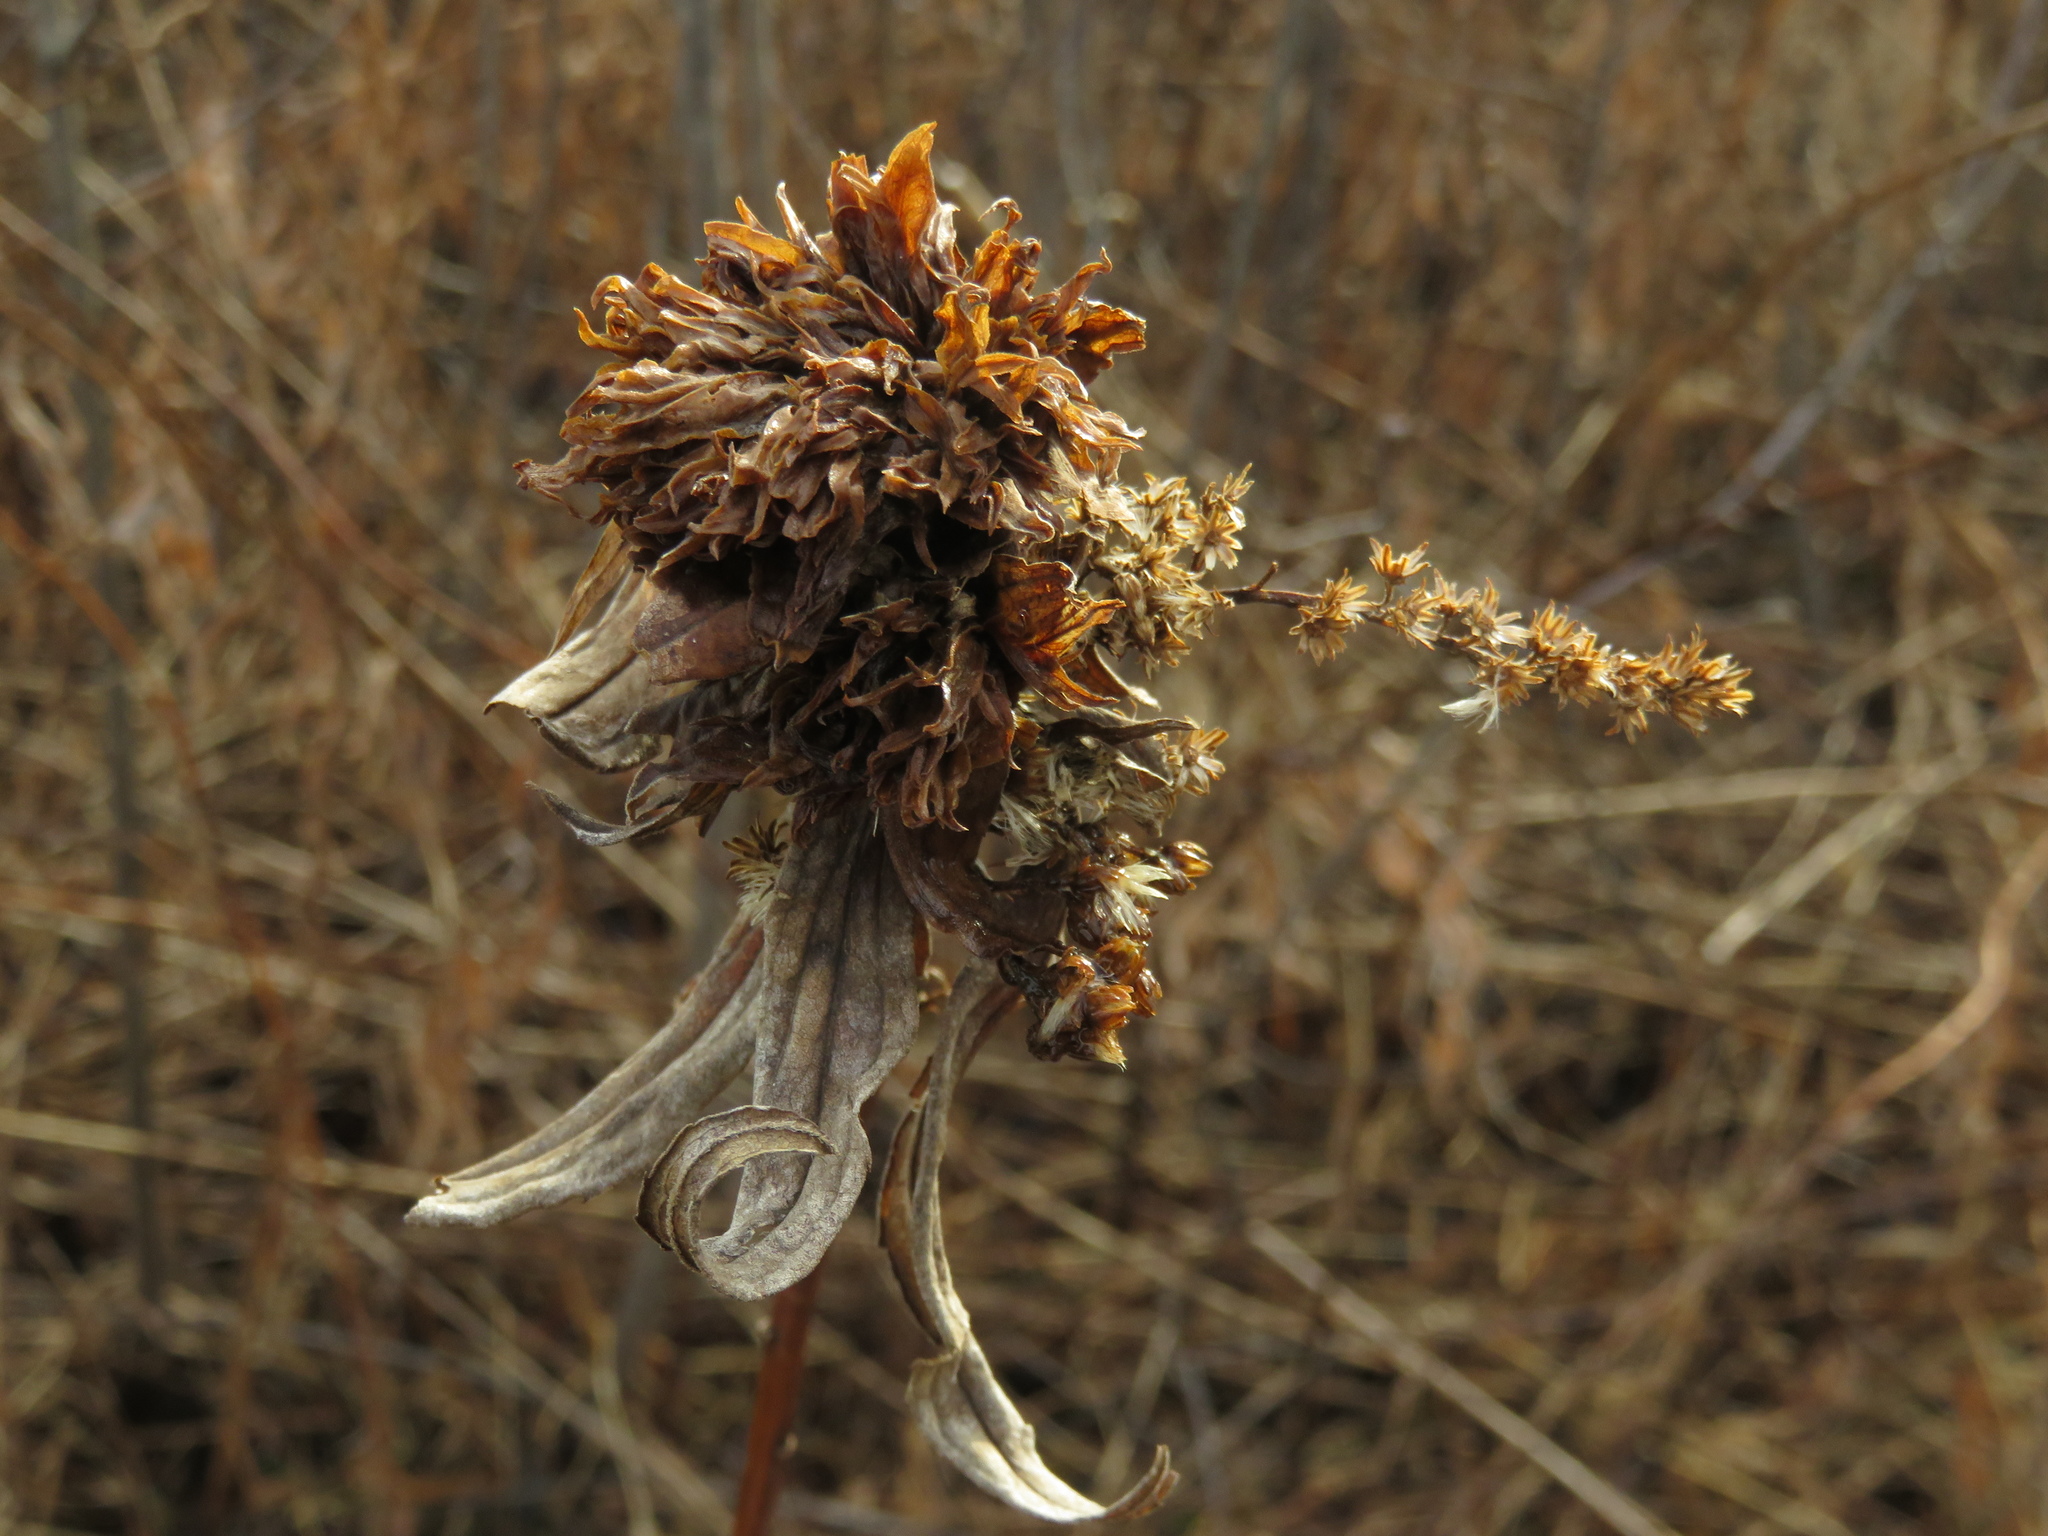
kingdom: Animalia
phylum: Arthropoda
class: Insecta
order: Diptera
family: Cecidomyiidae
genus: Rhopalomyia
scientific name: Rhopalomyia solidaginis
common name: Goldenrod bunch gall midge
